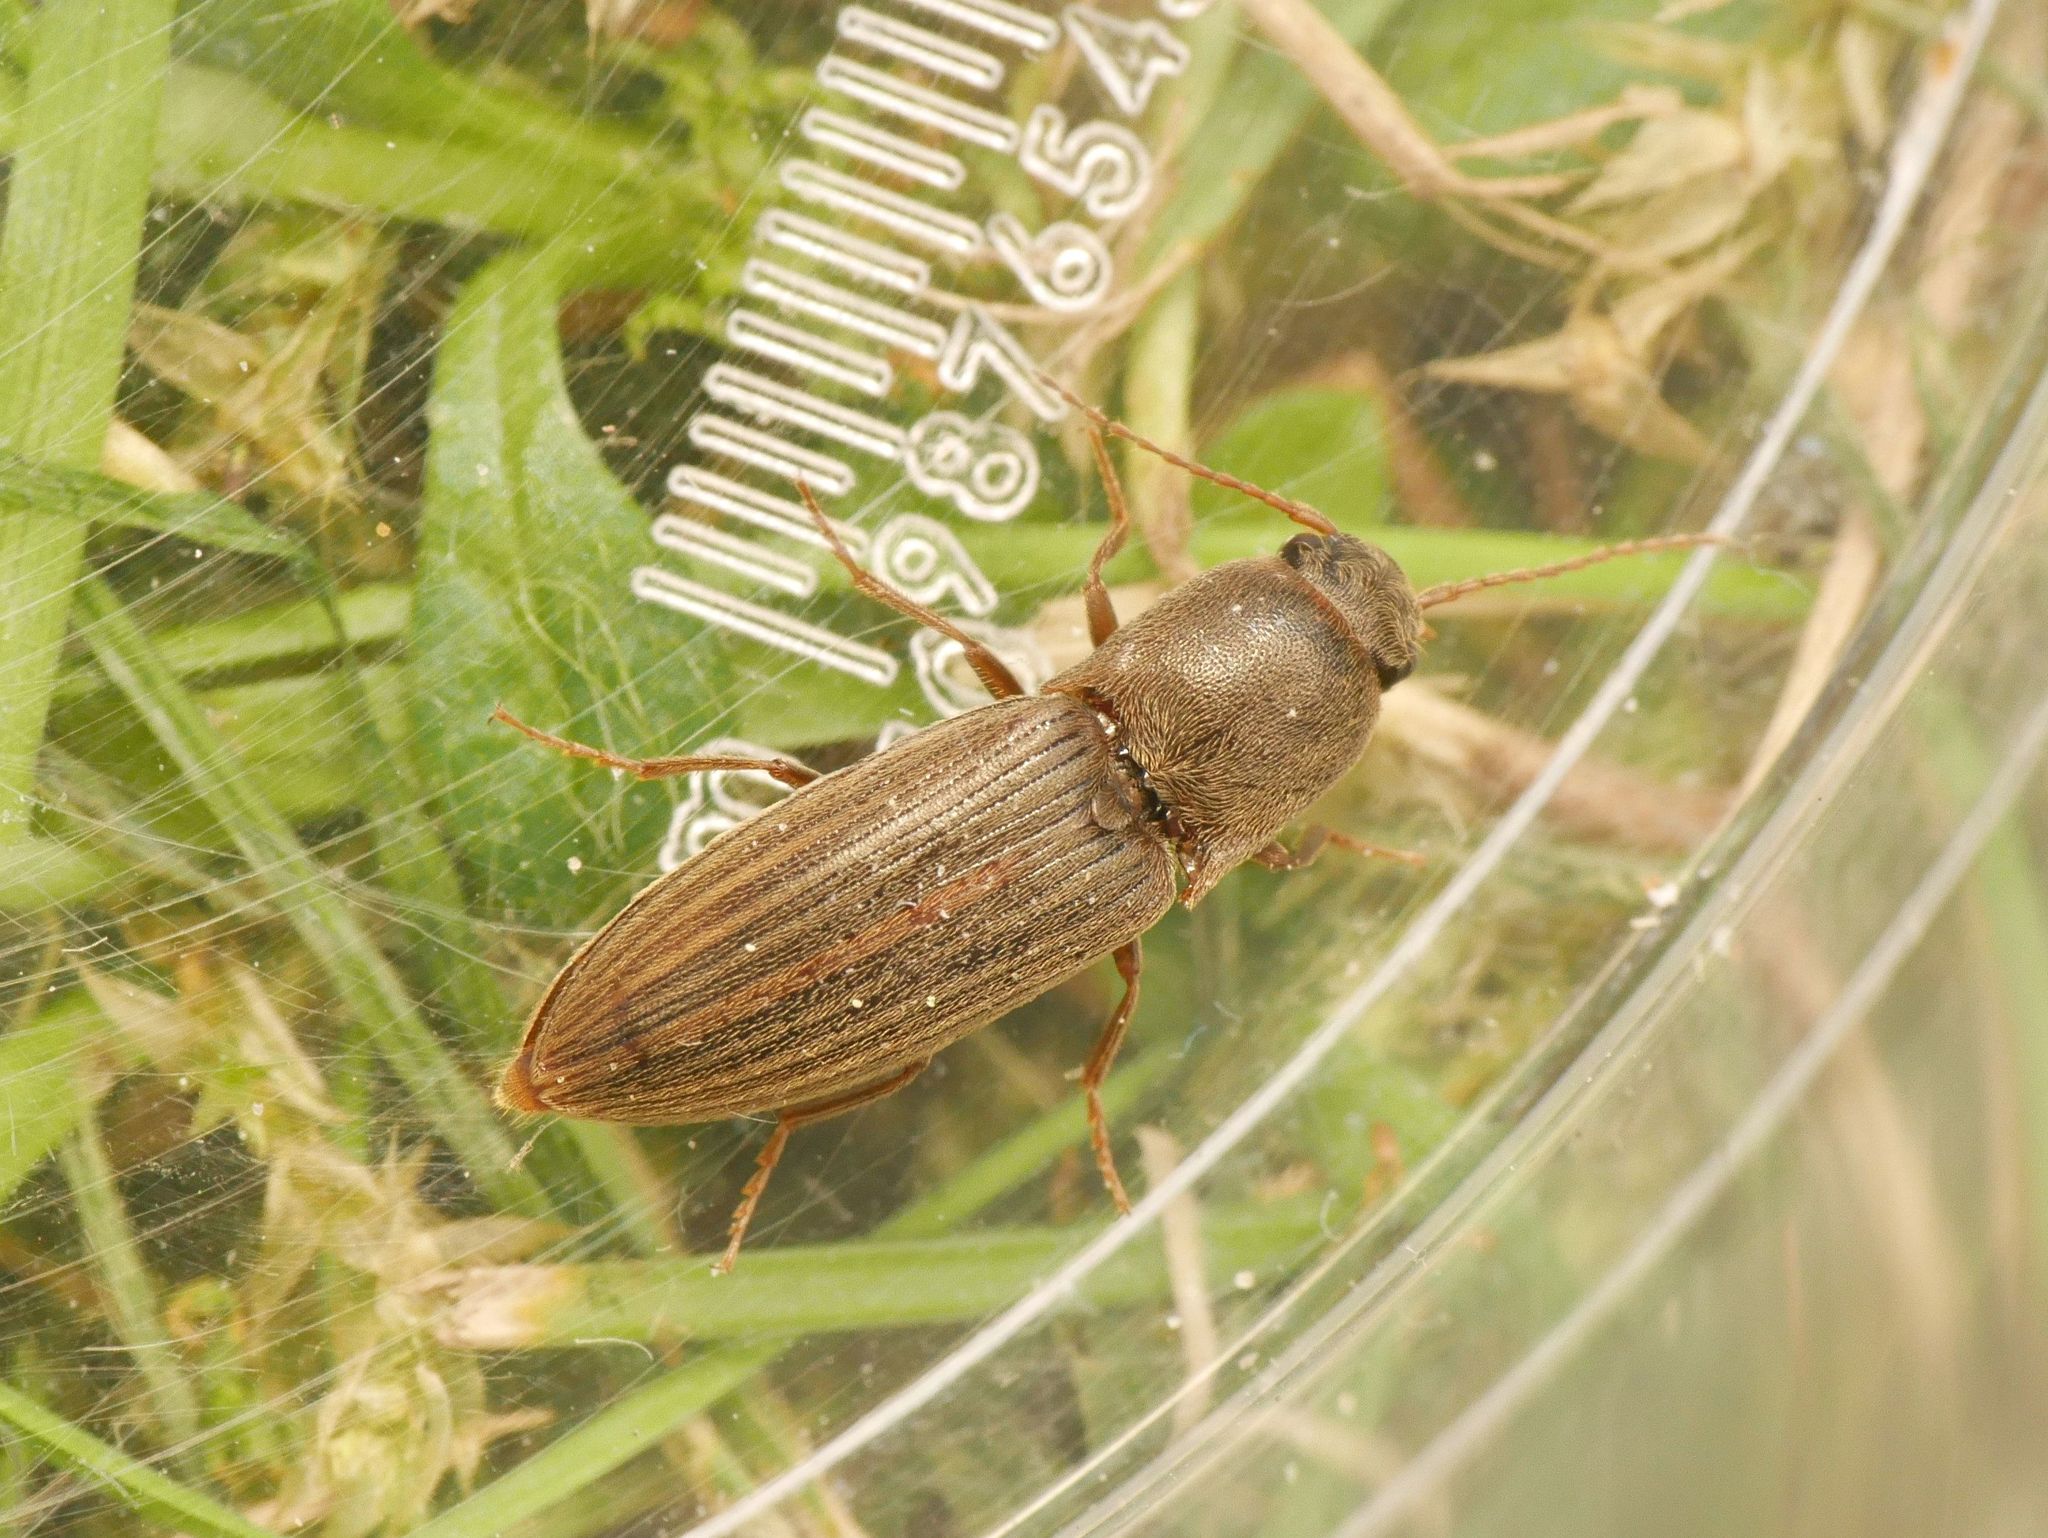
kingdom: Animalia
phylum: Arthropoda
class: Insecta
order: Coleoptera
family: Elateridae
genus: Agriotes
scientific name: Agriotes lineatus
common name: Lined click beetle
